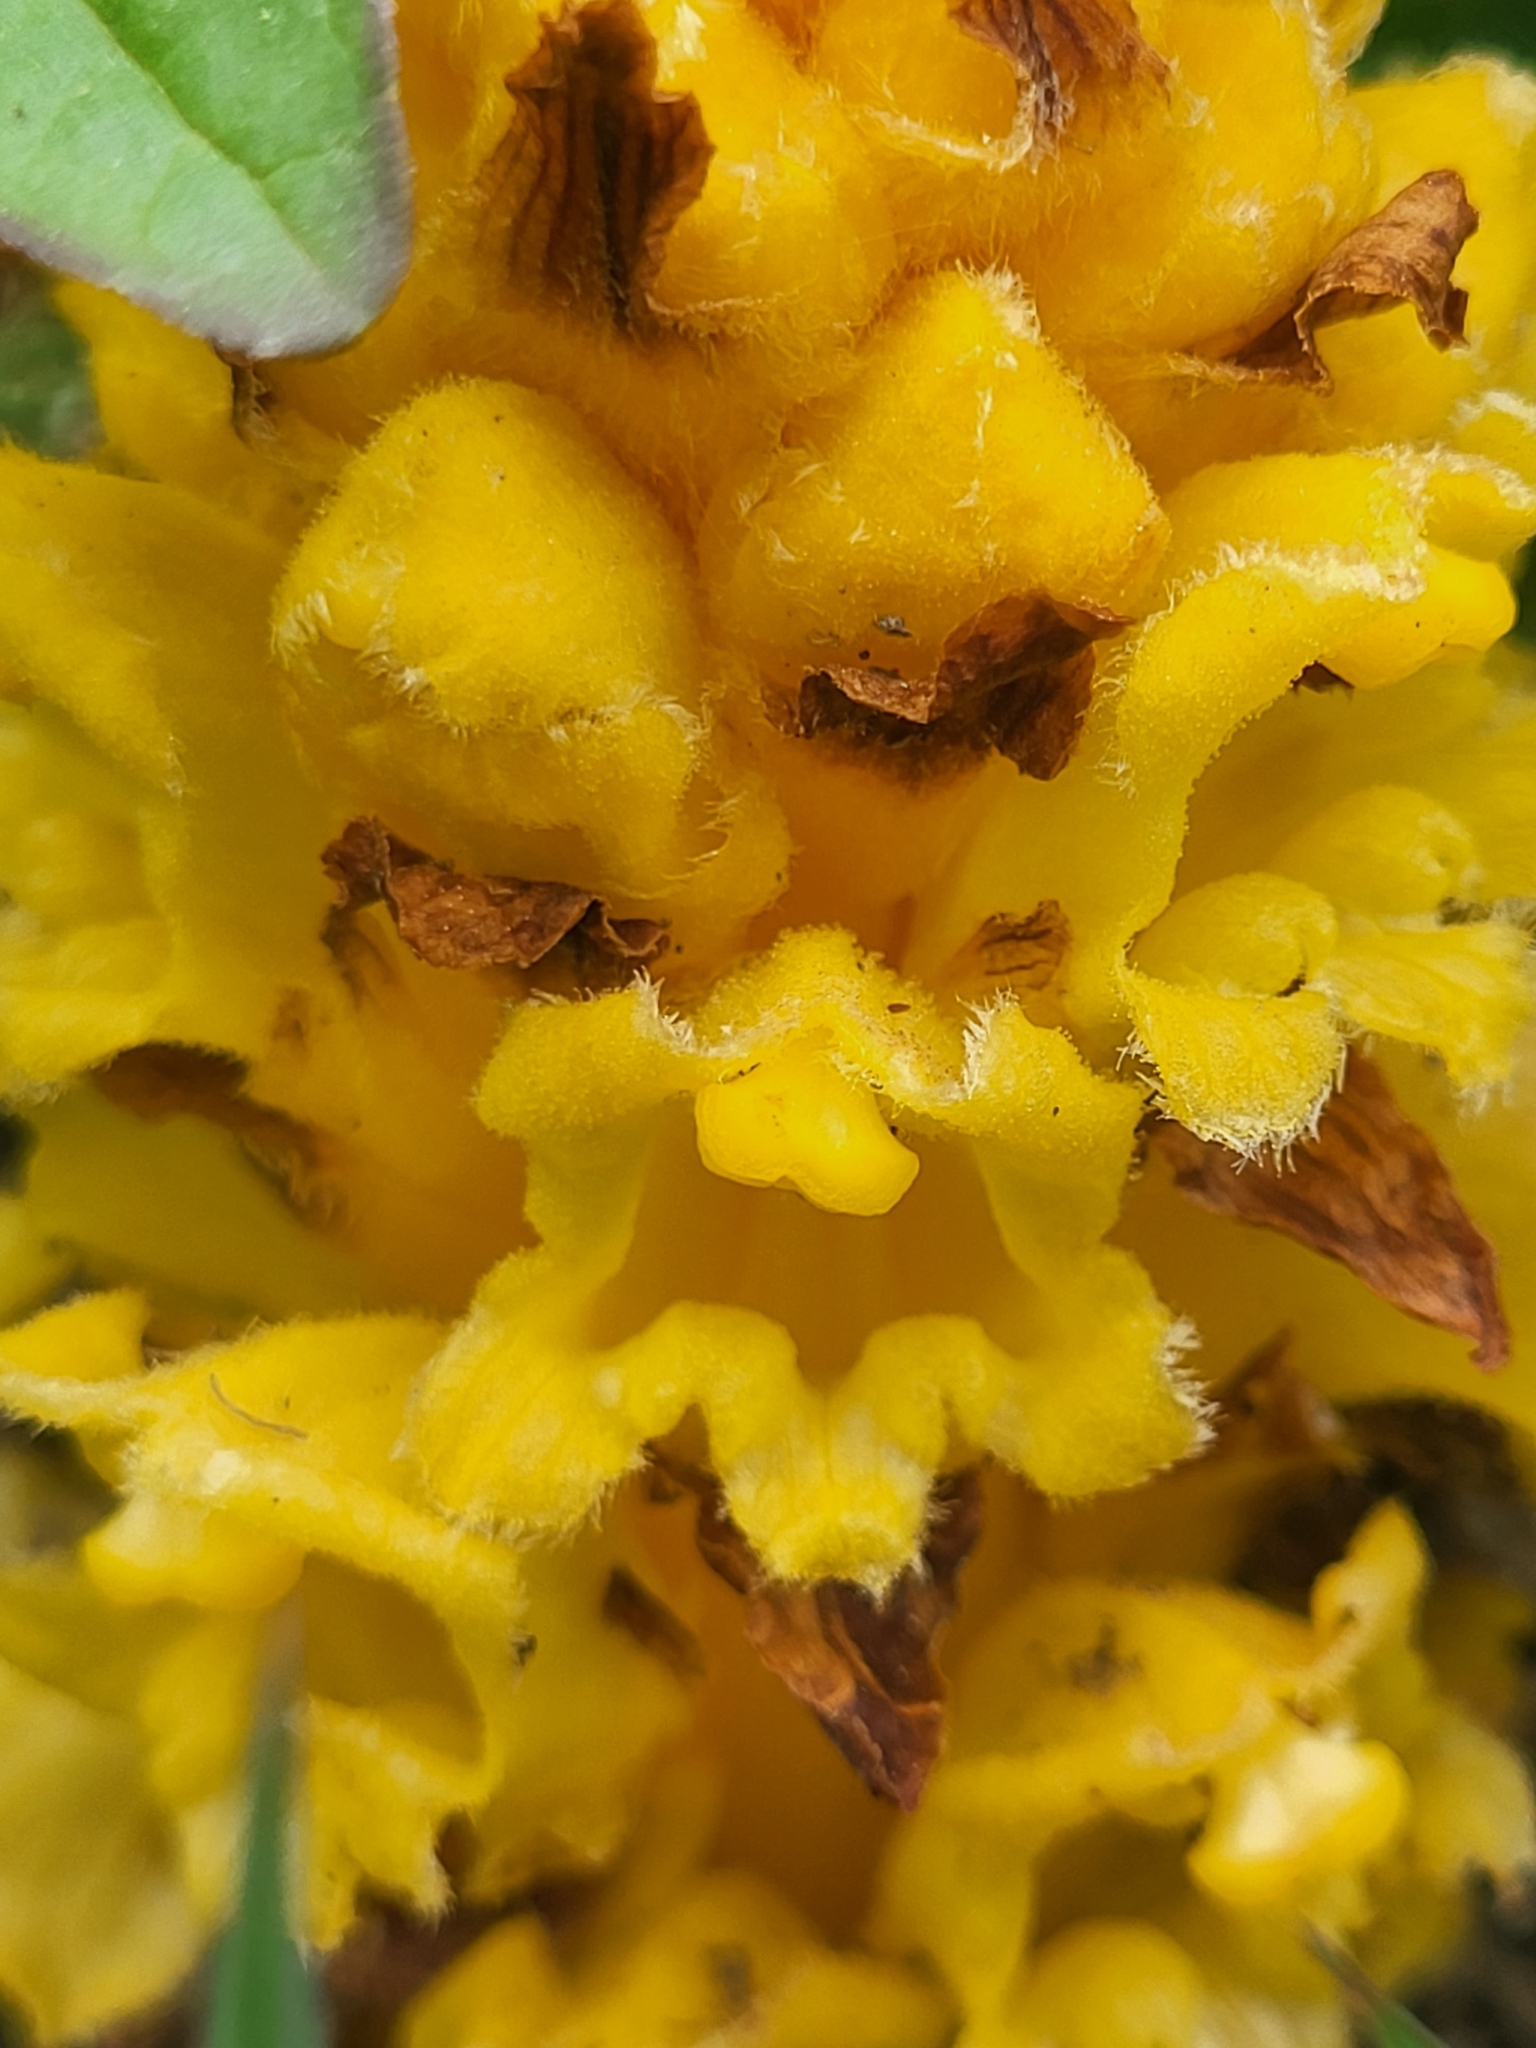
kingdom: Plantae
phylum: Tracheophyta
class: Magnoliopsida
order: Lamiales
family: Orobanchaceae
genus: Orobanche
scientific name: Orobanche colorata
